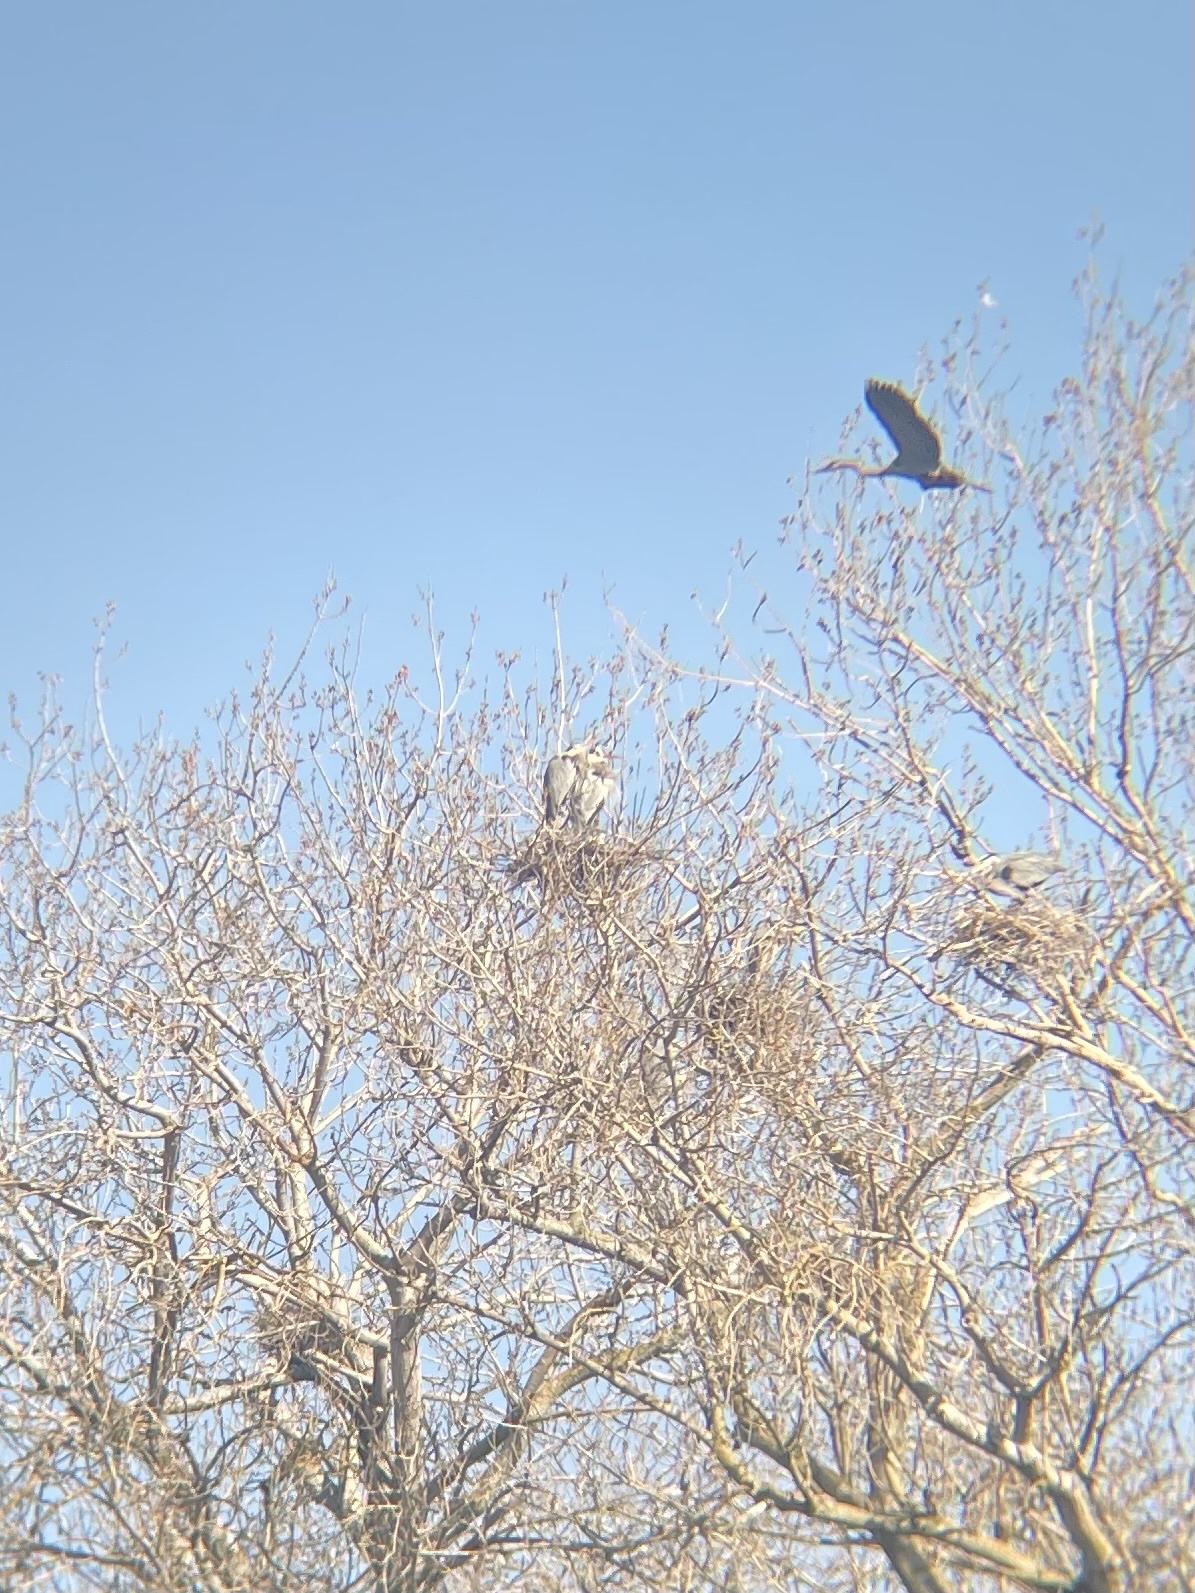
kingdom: Animalia
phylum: Chordata
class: Aves
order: Pelecaniformes
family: Ardeidae
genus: Ardea
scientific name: Ardea herodias
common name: Great blue heron
